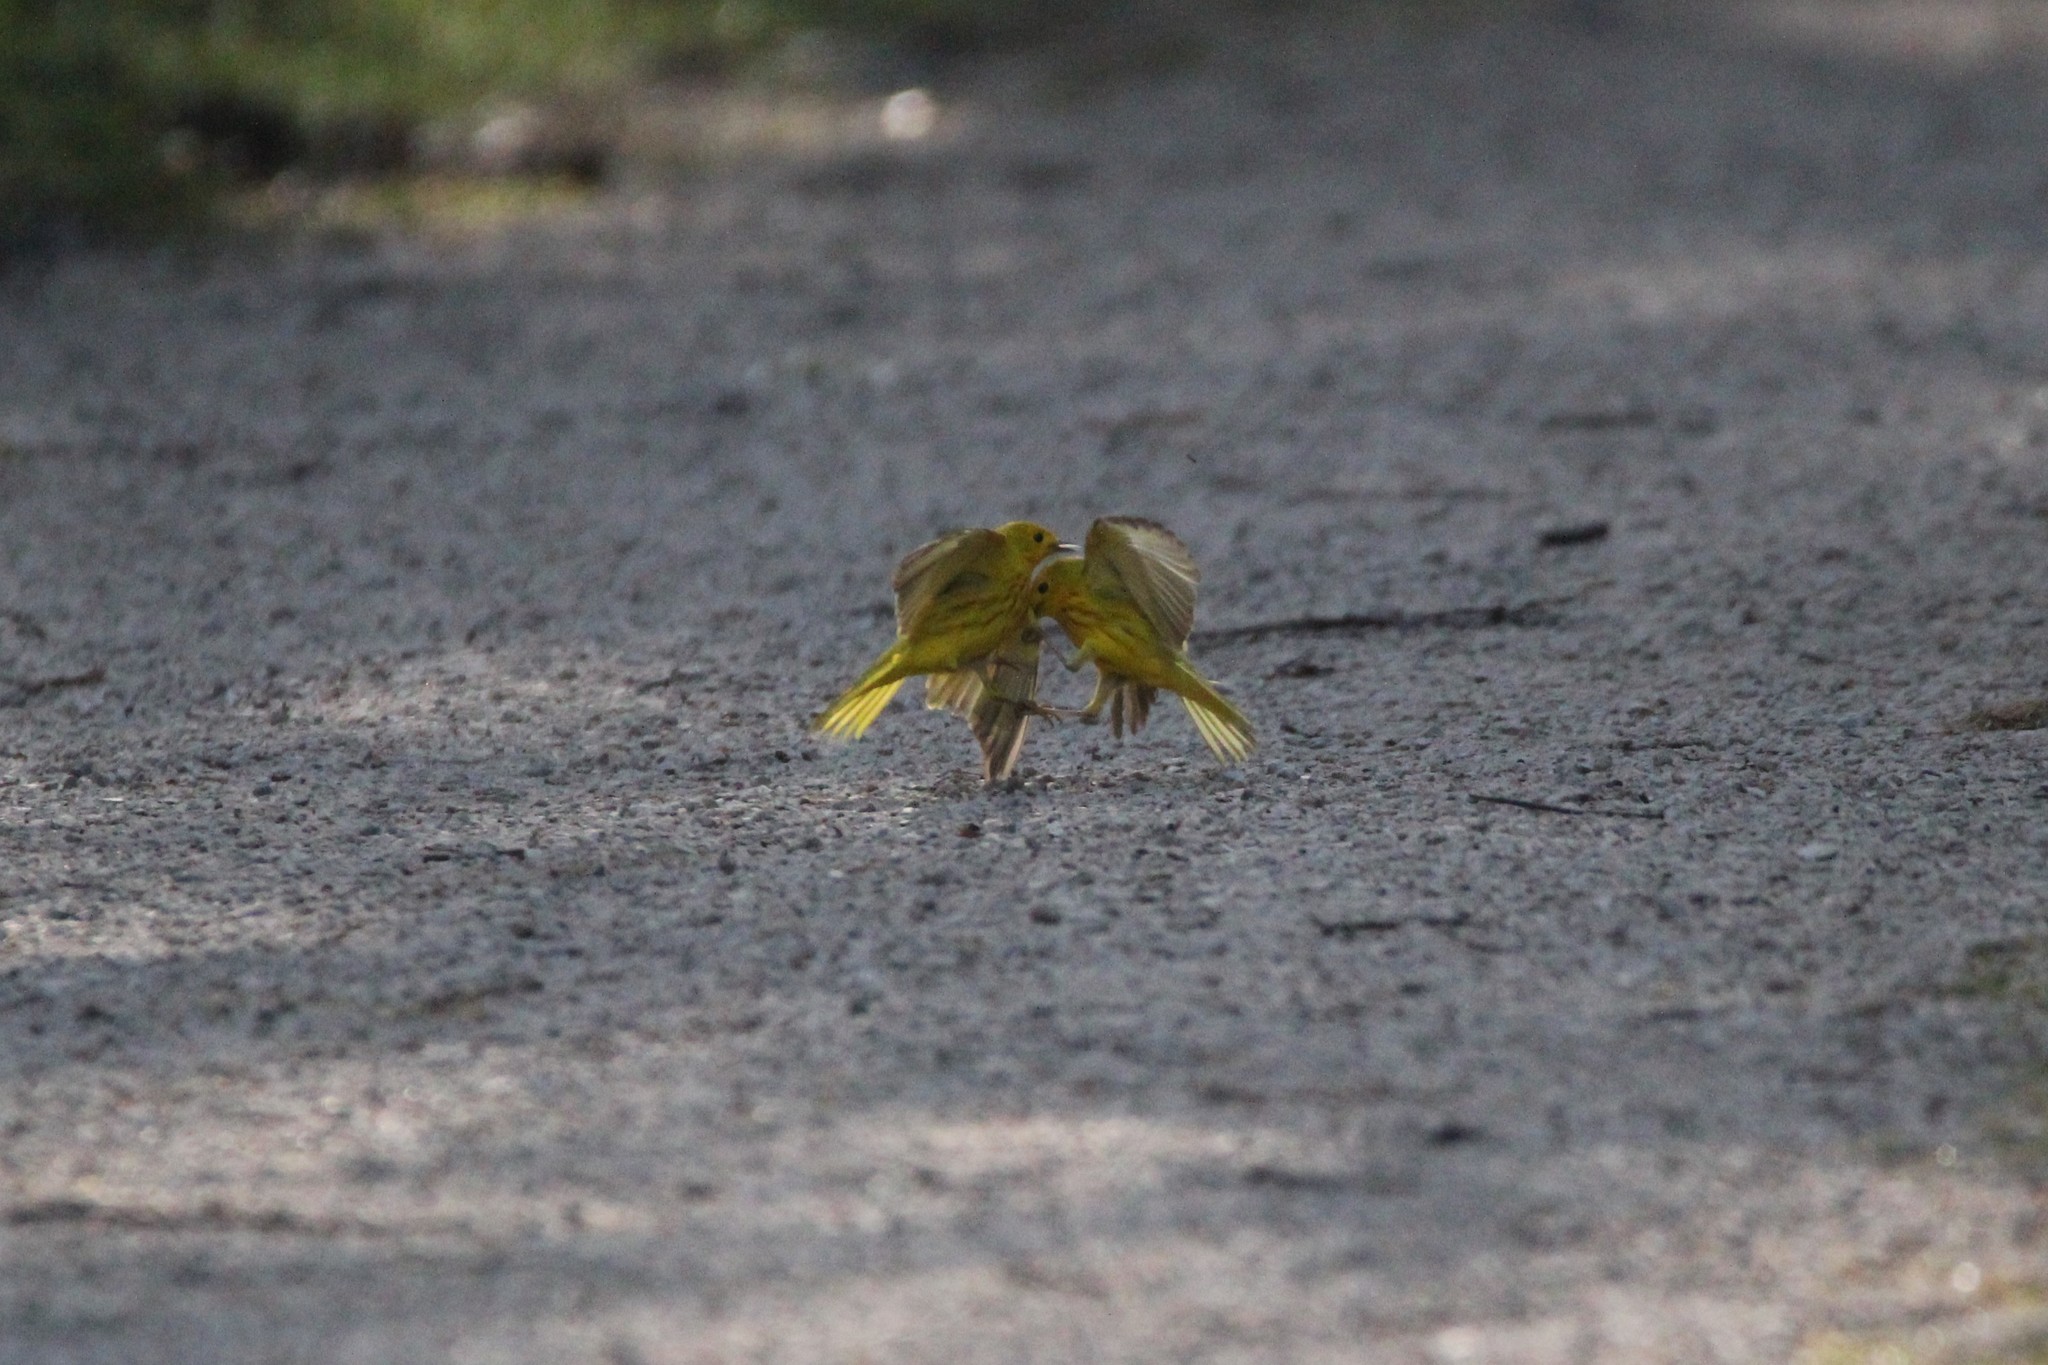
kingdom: Animalia
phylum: Chordata
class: Aves
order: Passeriformes
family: Parulidae
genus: Setophaga
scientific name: Setophaga petechia
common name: Yellow warbler
